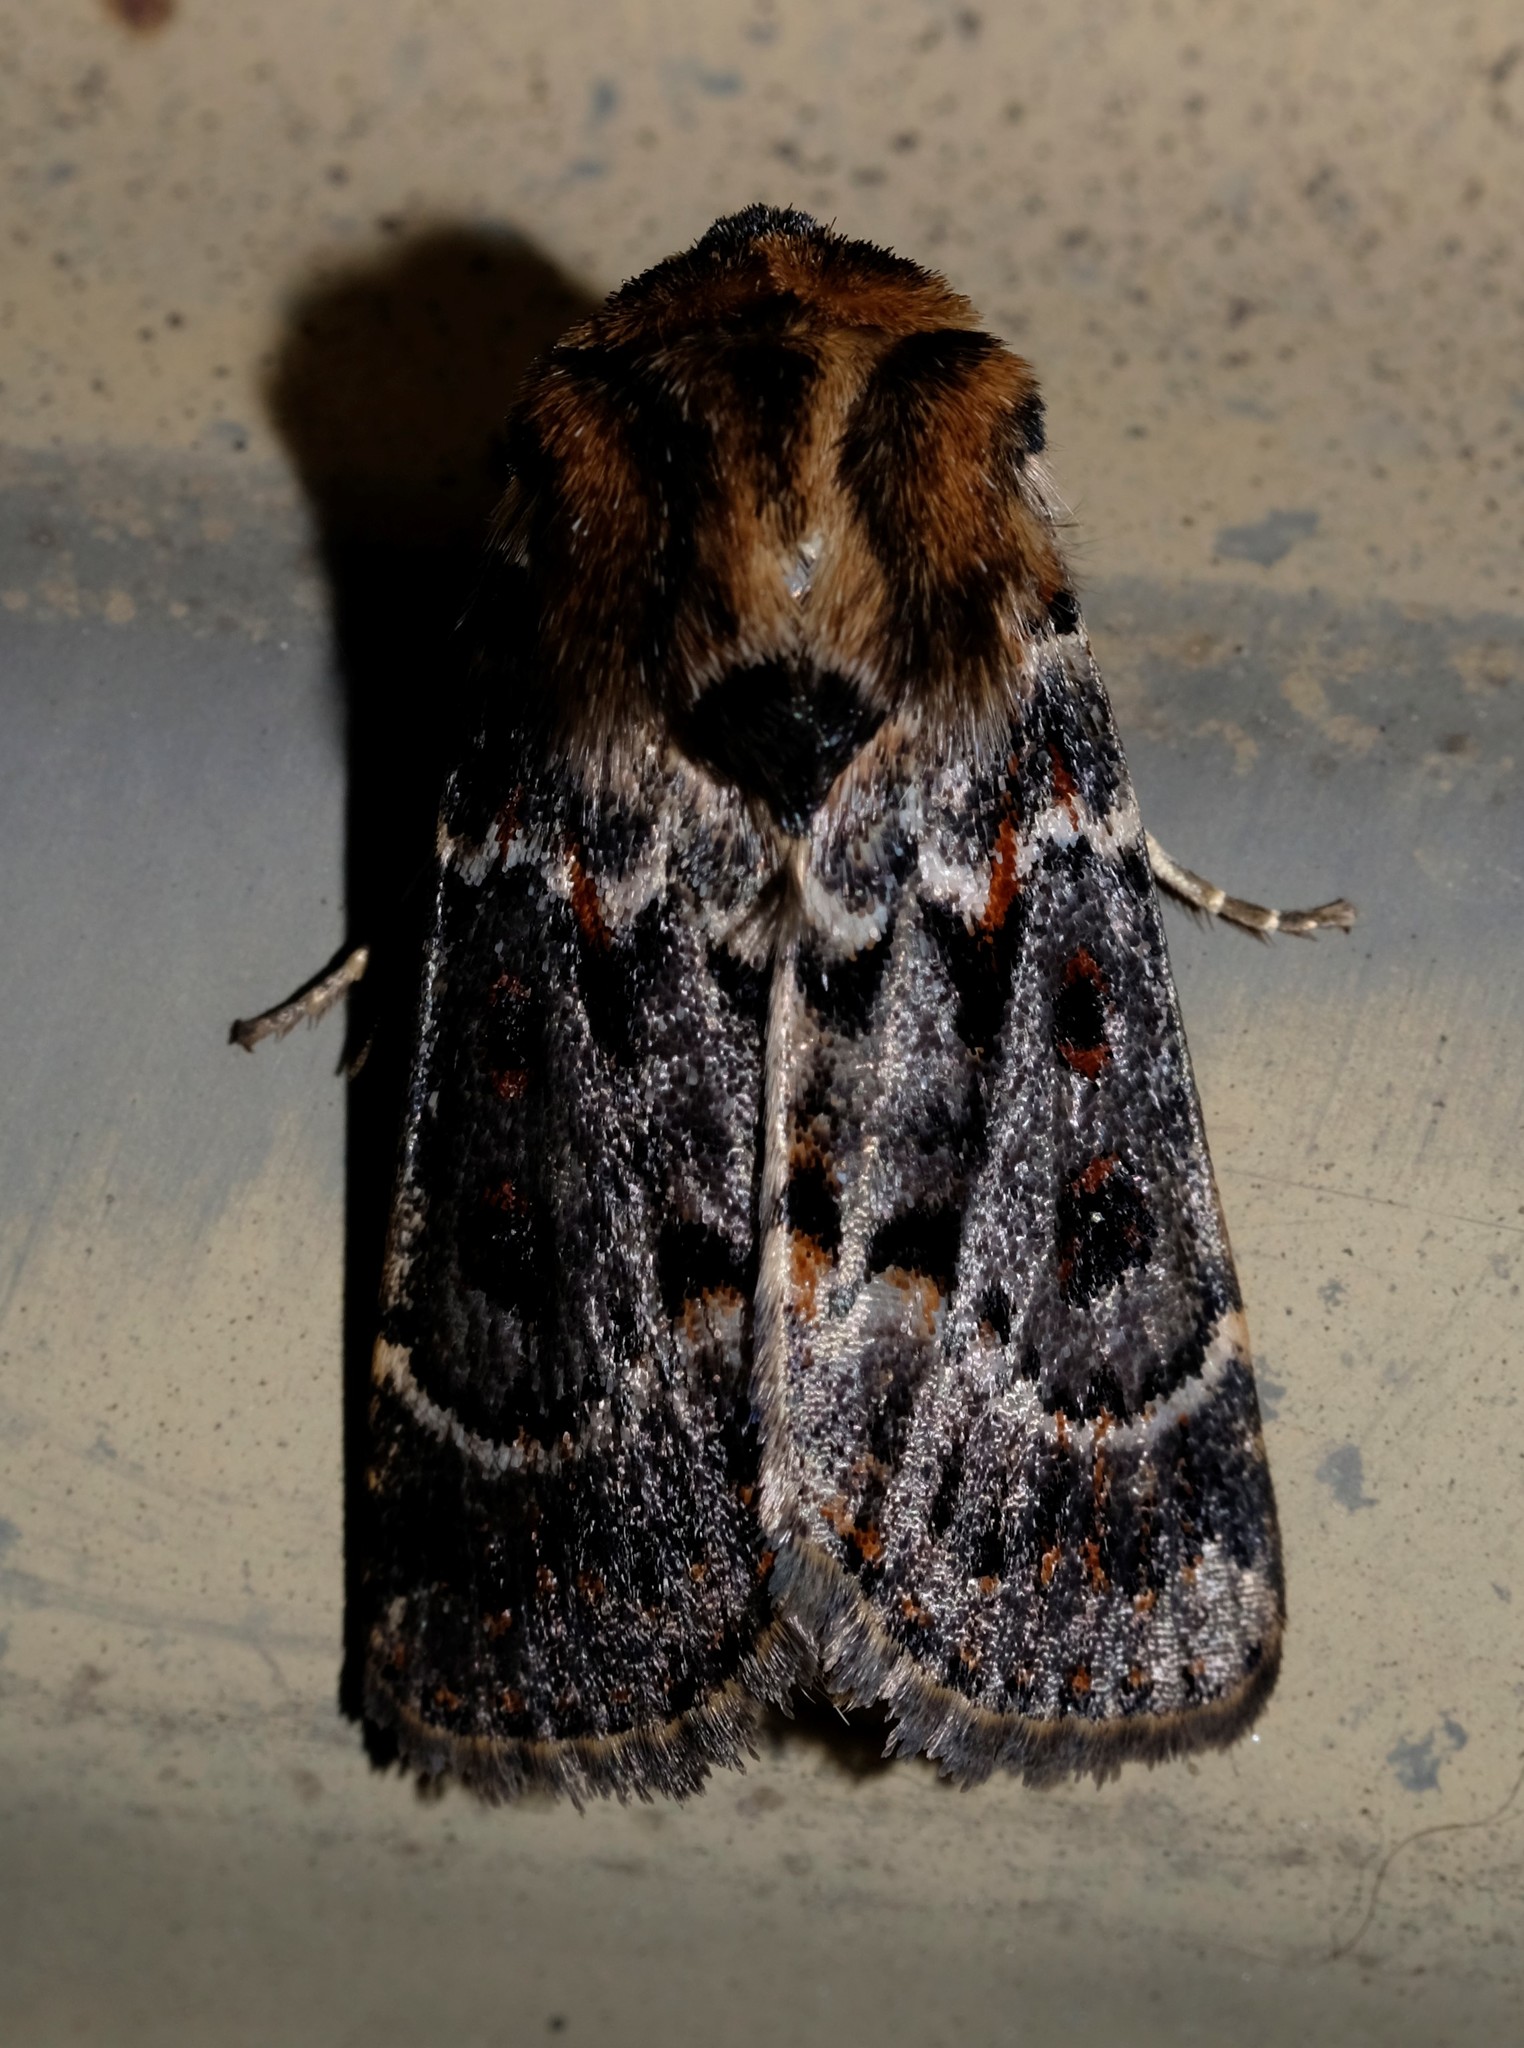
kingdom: Animalia
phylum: Arthropoda
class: Insecta
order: Lepidoptera
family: Noctuidae
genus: Proteuxoa
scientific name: Proteuxoa sanguinipuncta
